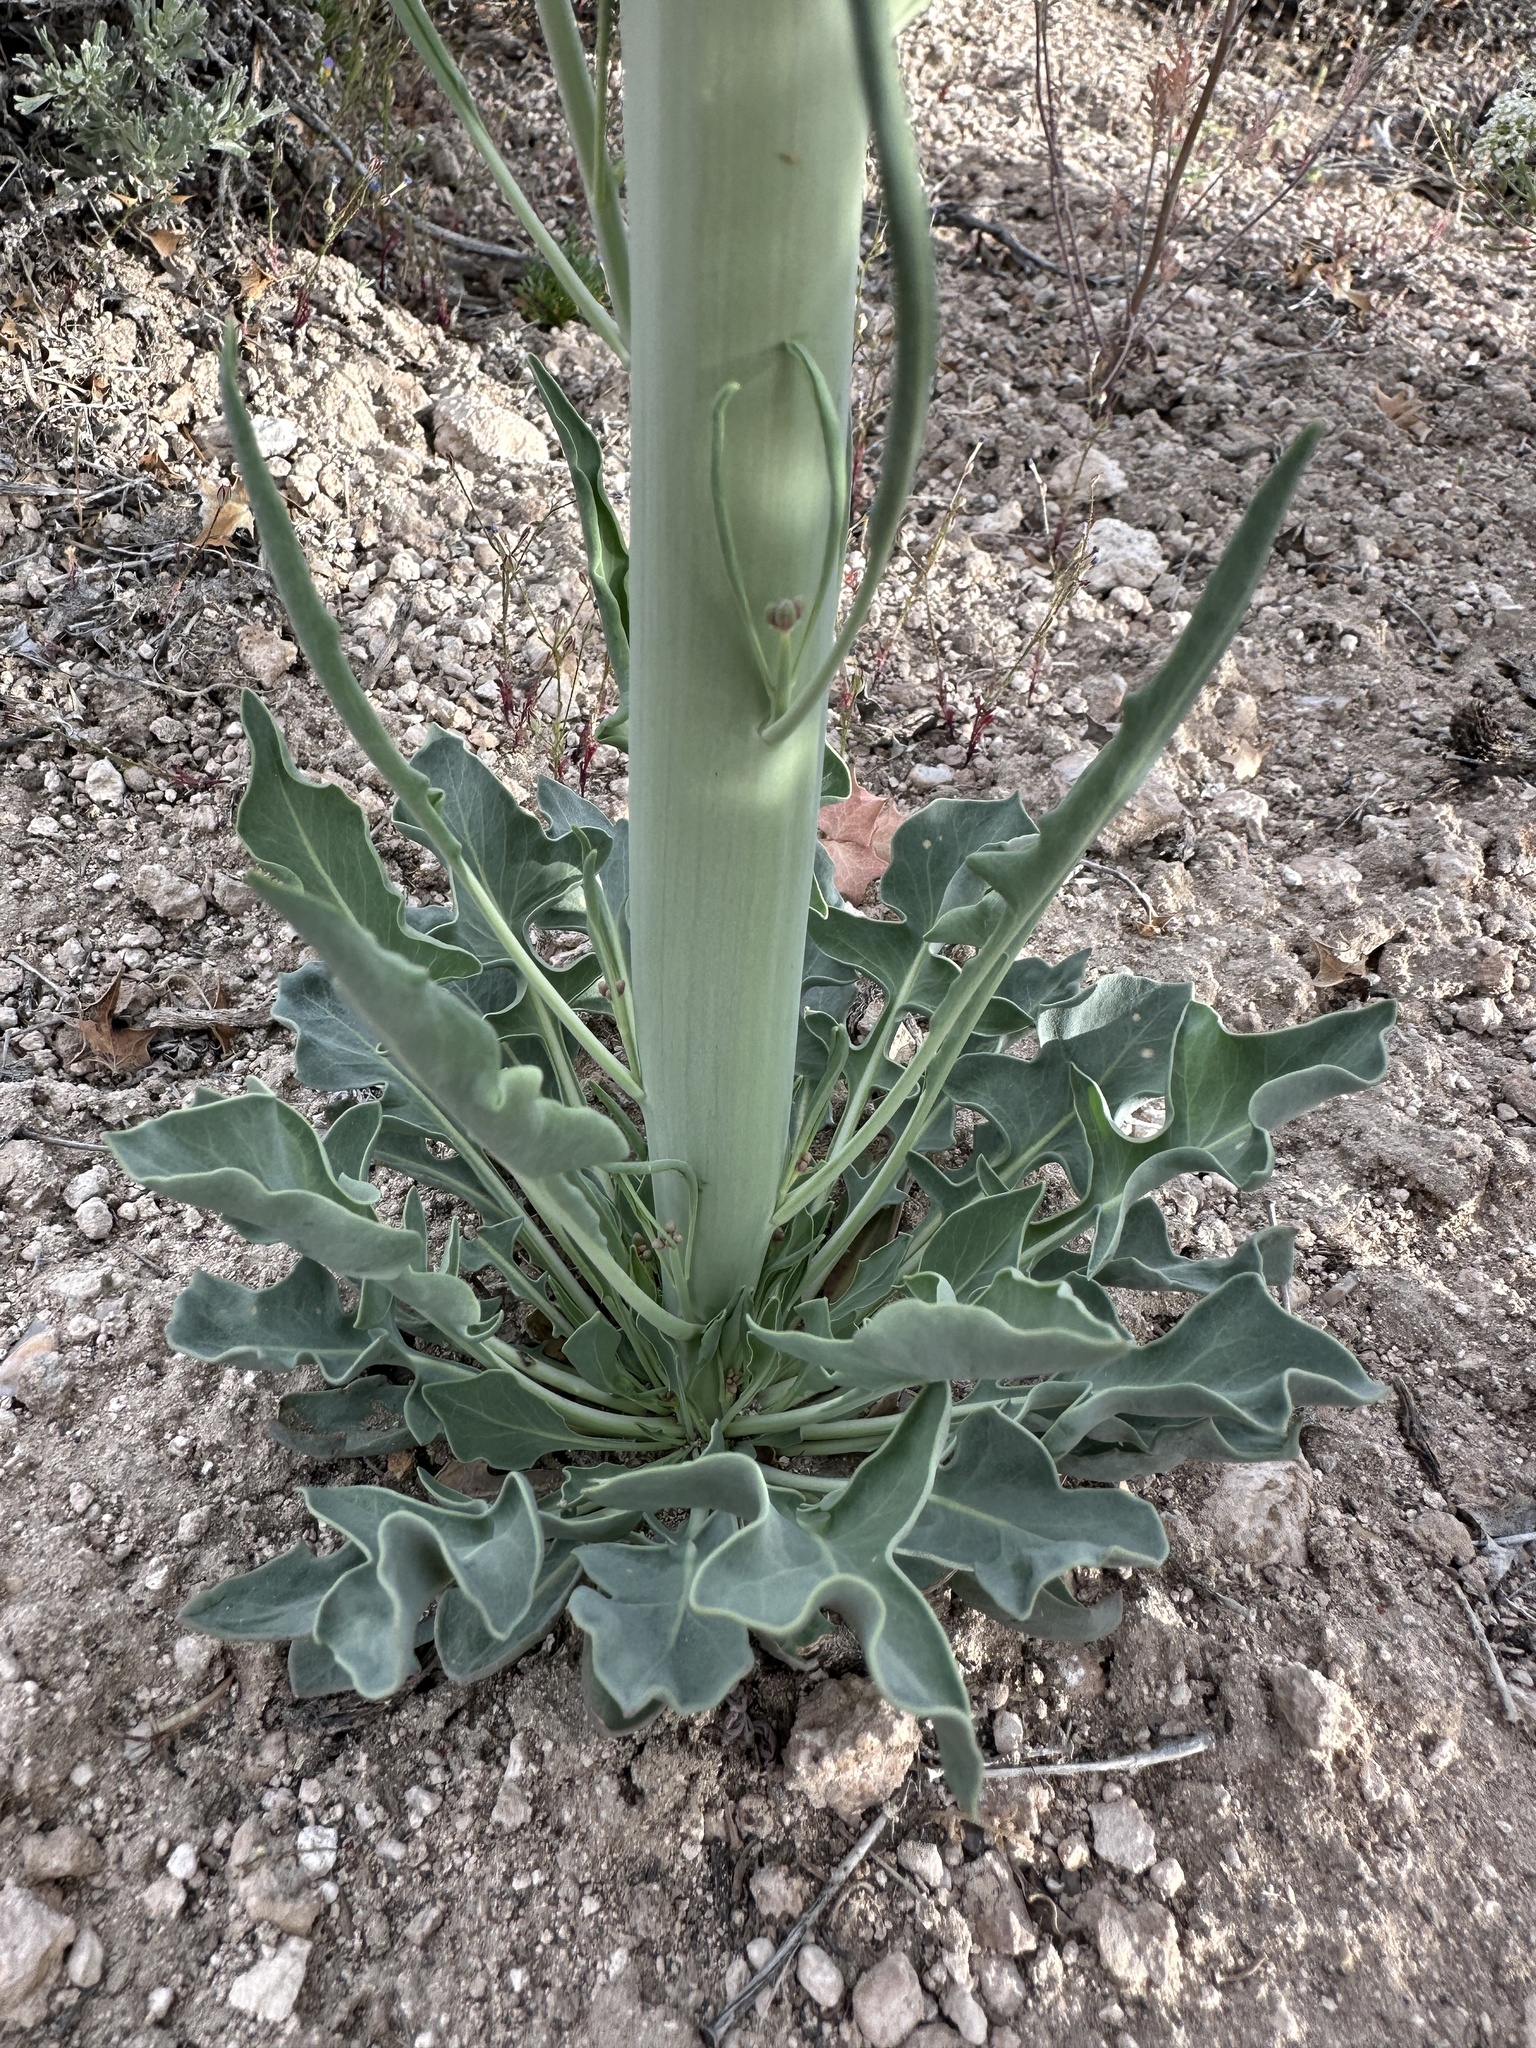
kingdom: Plantae
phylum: Tracheophyta
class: Magnoliopsida
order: Brassicales
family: Brassicaceae
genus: Streptanthus
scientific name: Streptanthus crassicaulis
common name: Thick-stem wild cabbage
